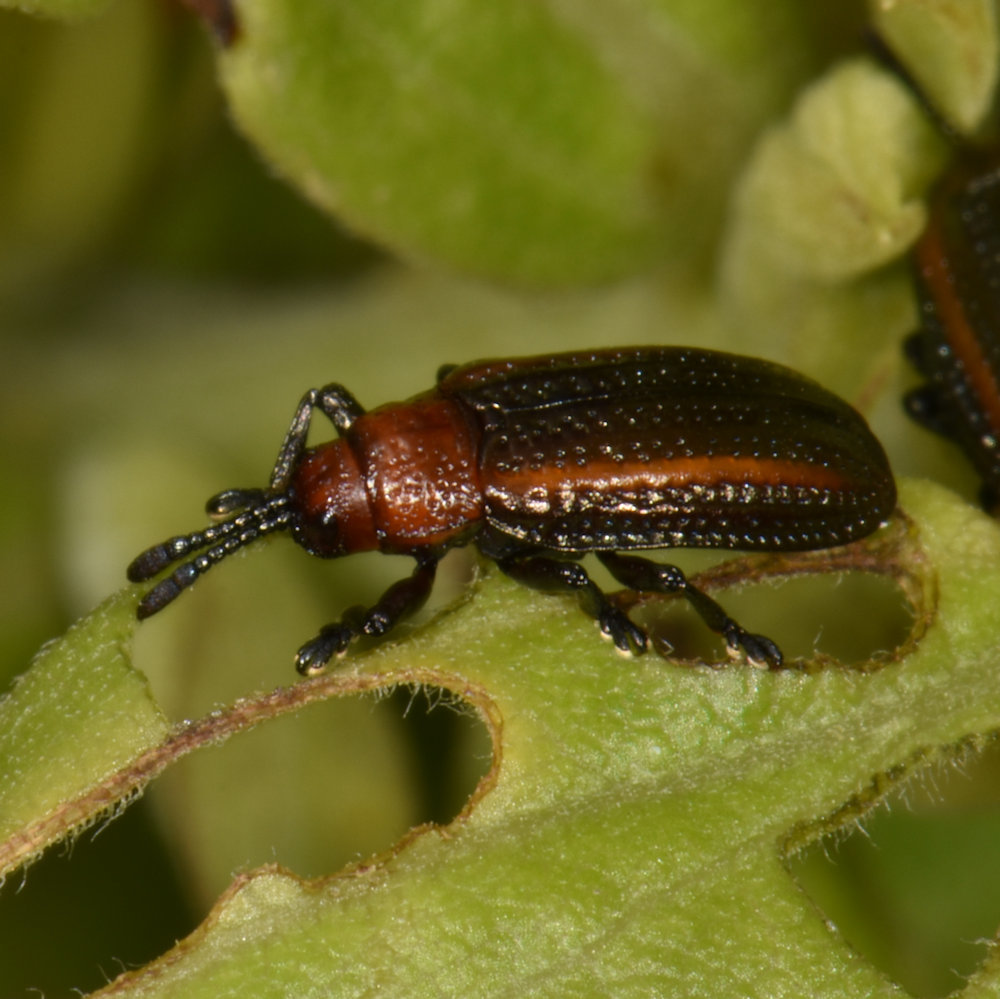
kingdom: Animalia
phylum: Arthropoda
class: Insecta
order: Coleoptera
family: Chrysomelidae
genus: Microrhopala
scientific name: Microrhopala vittata
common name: Goldenrod leaf miner beetle
